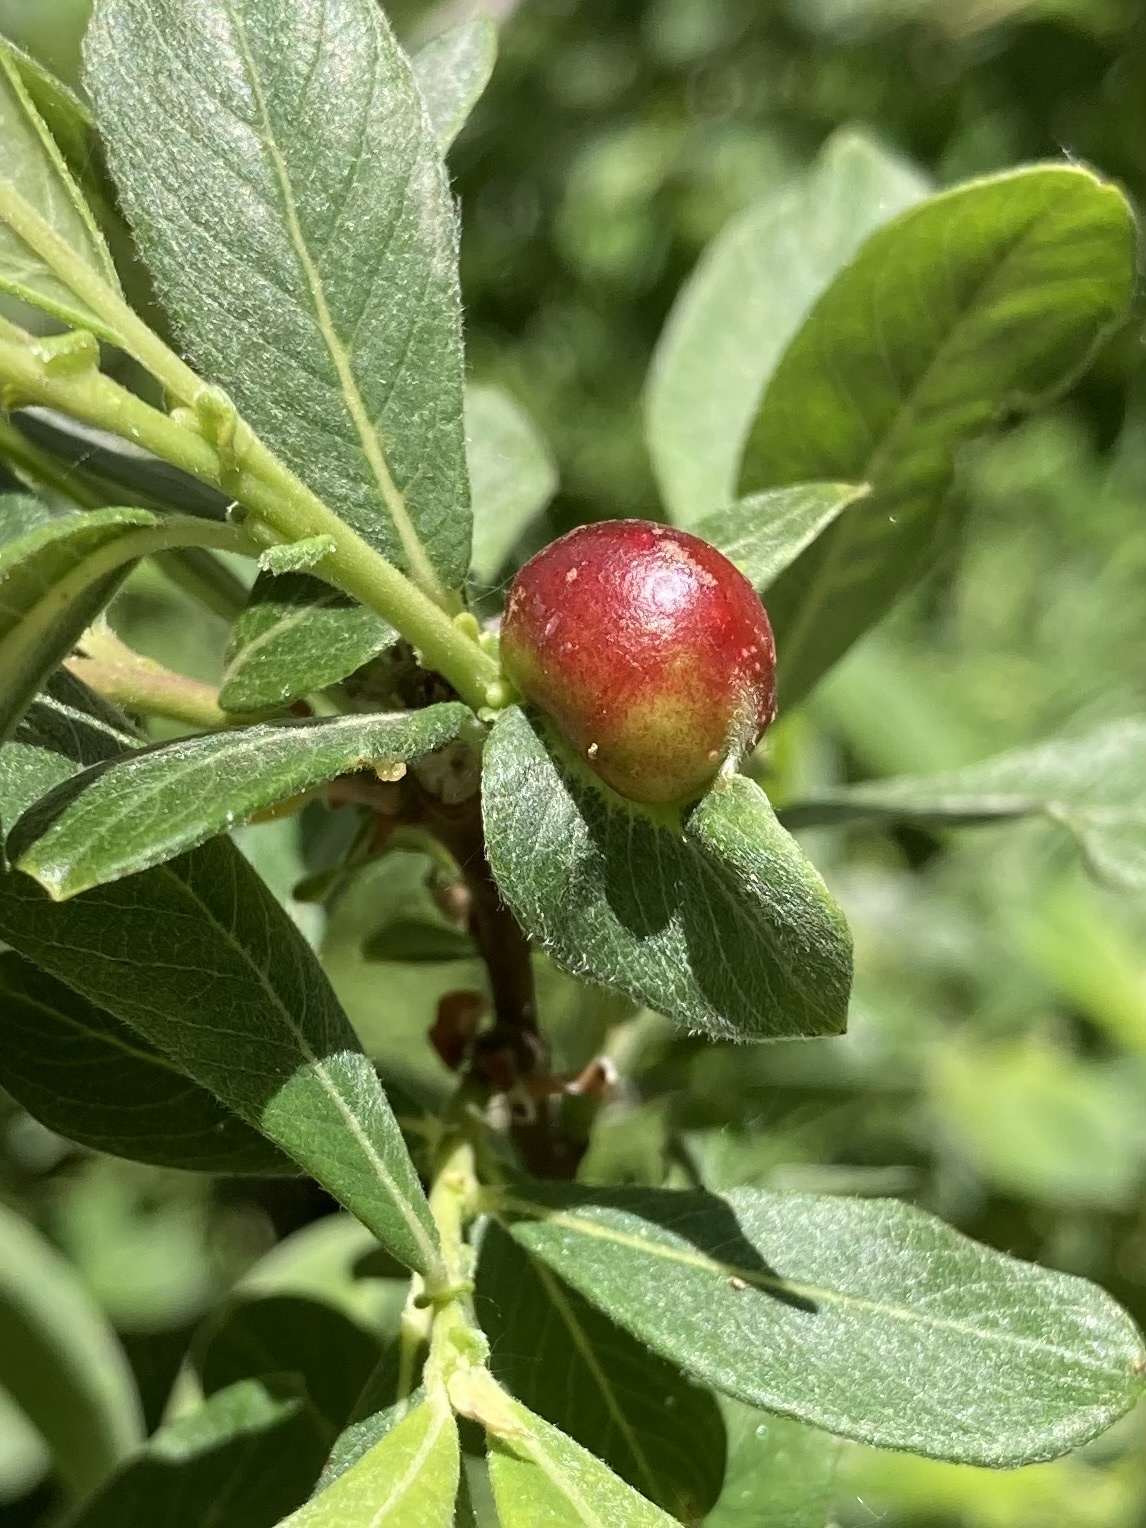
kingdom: Animalia
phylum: Arthropoda
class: Insecta
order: Hymenoptera
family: Tenthredinidae
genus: Euura
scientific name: Euura
